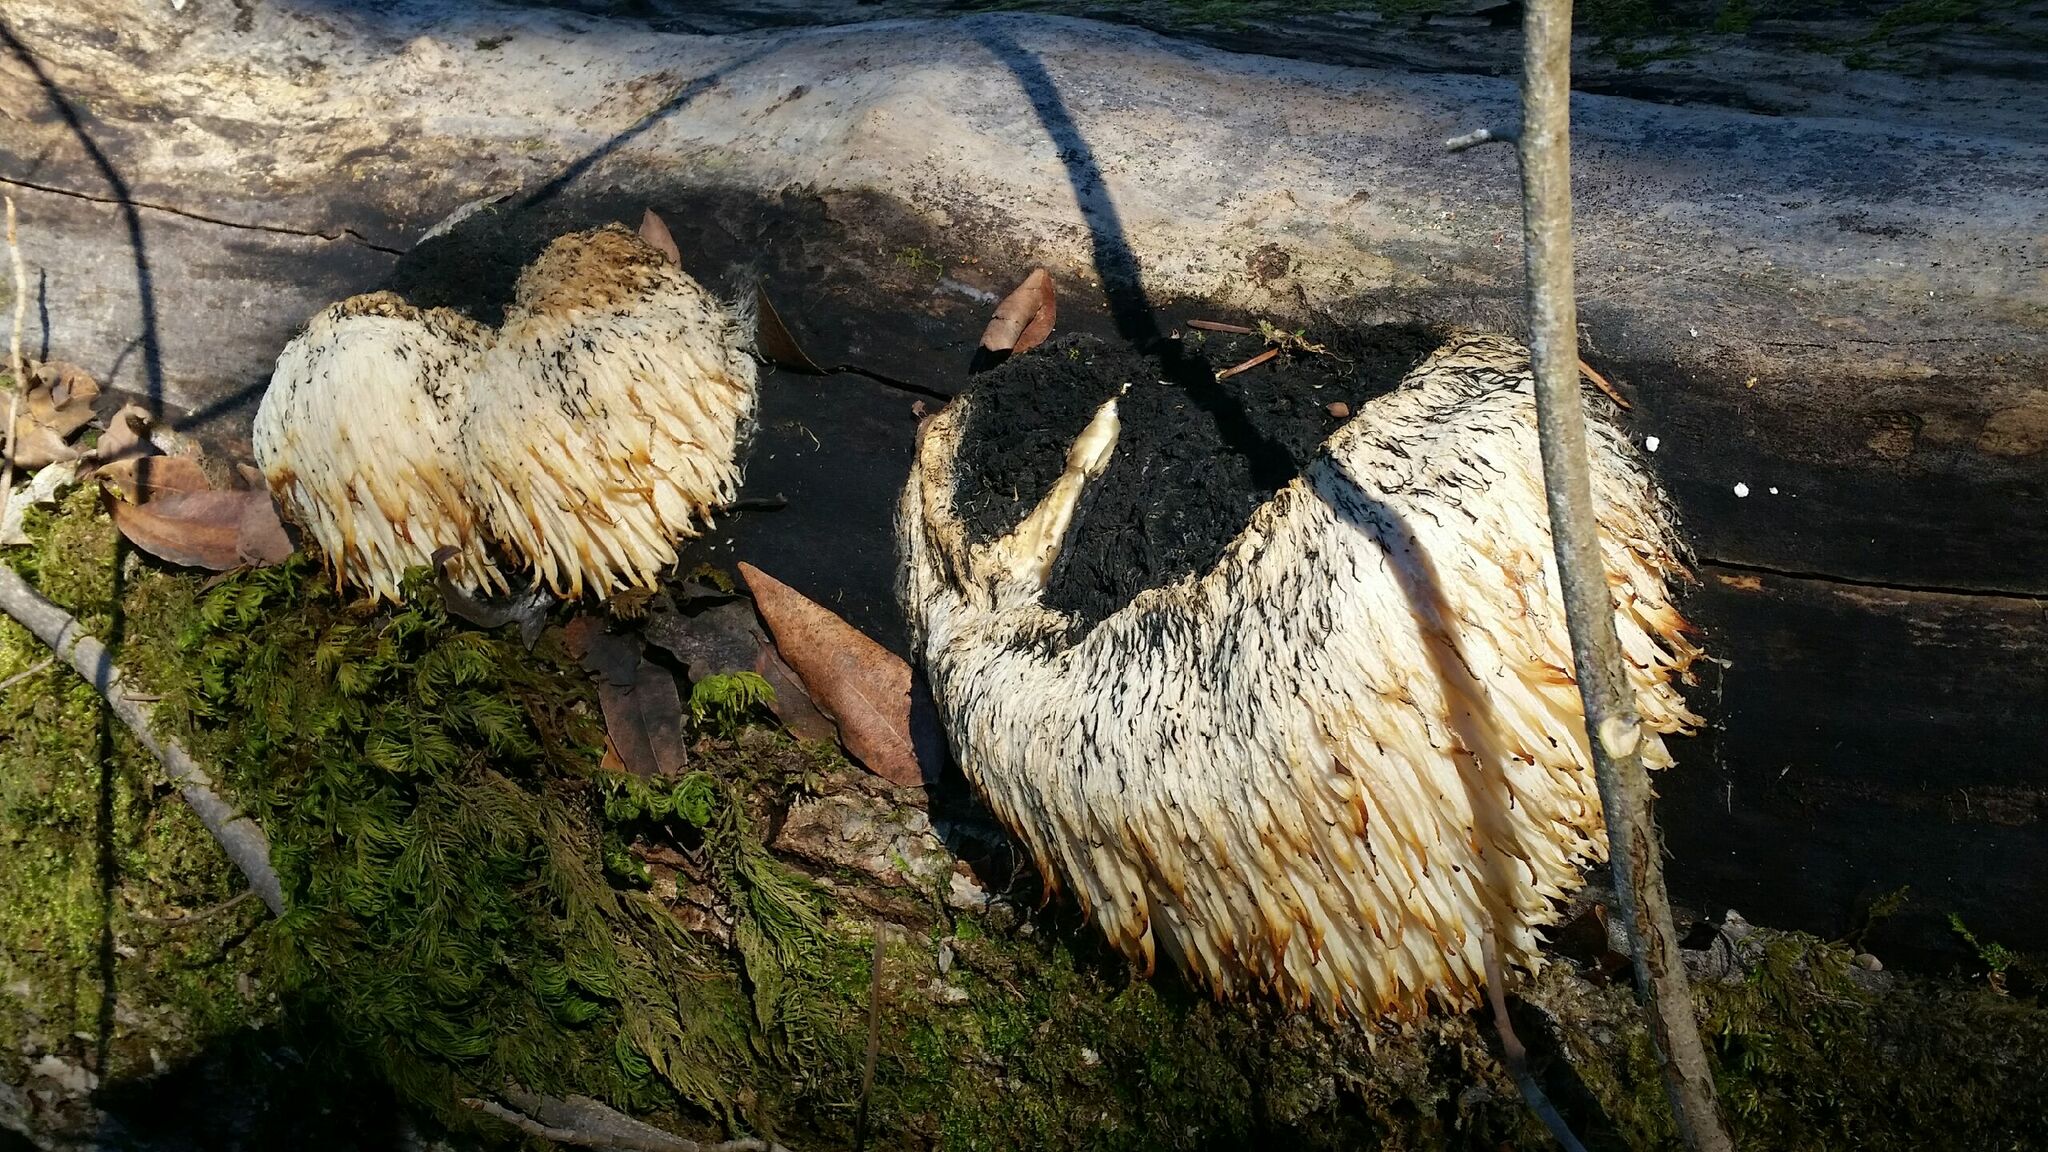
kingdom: Fungi
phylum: Basidiomycota
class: Agaricomycetes
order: Russulales
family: Hericiaceae
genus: Hericium
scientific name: Hericium erinaceus
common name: Bearded tooth
